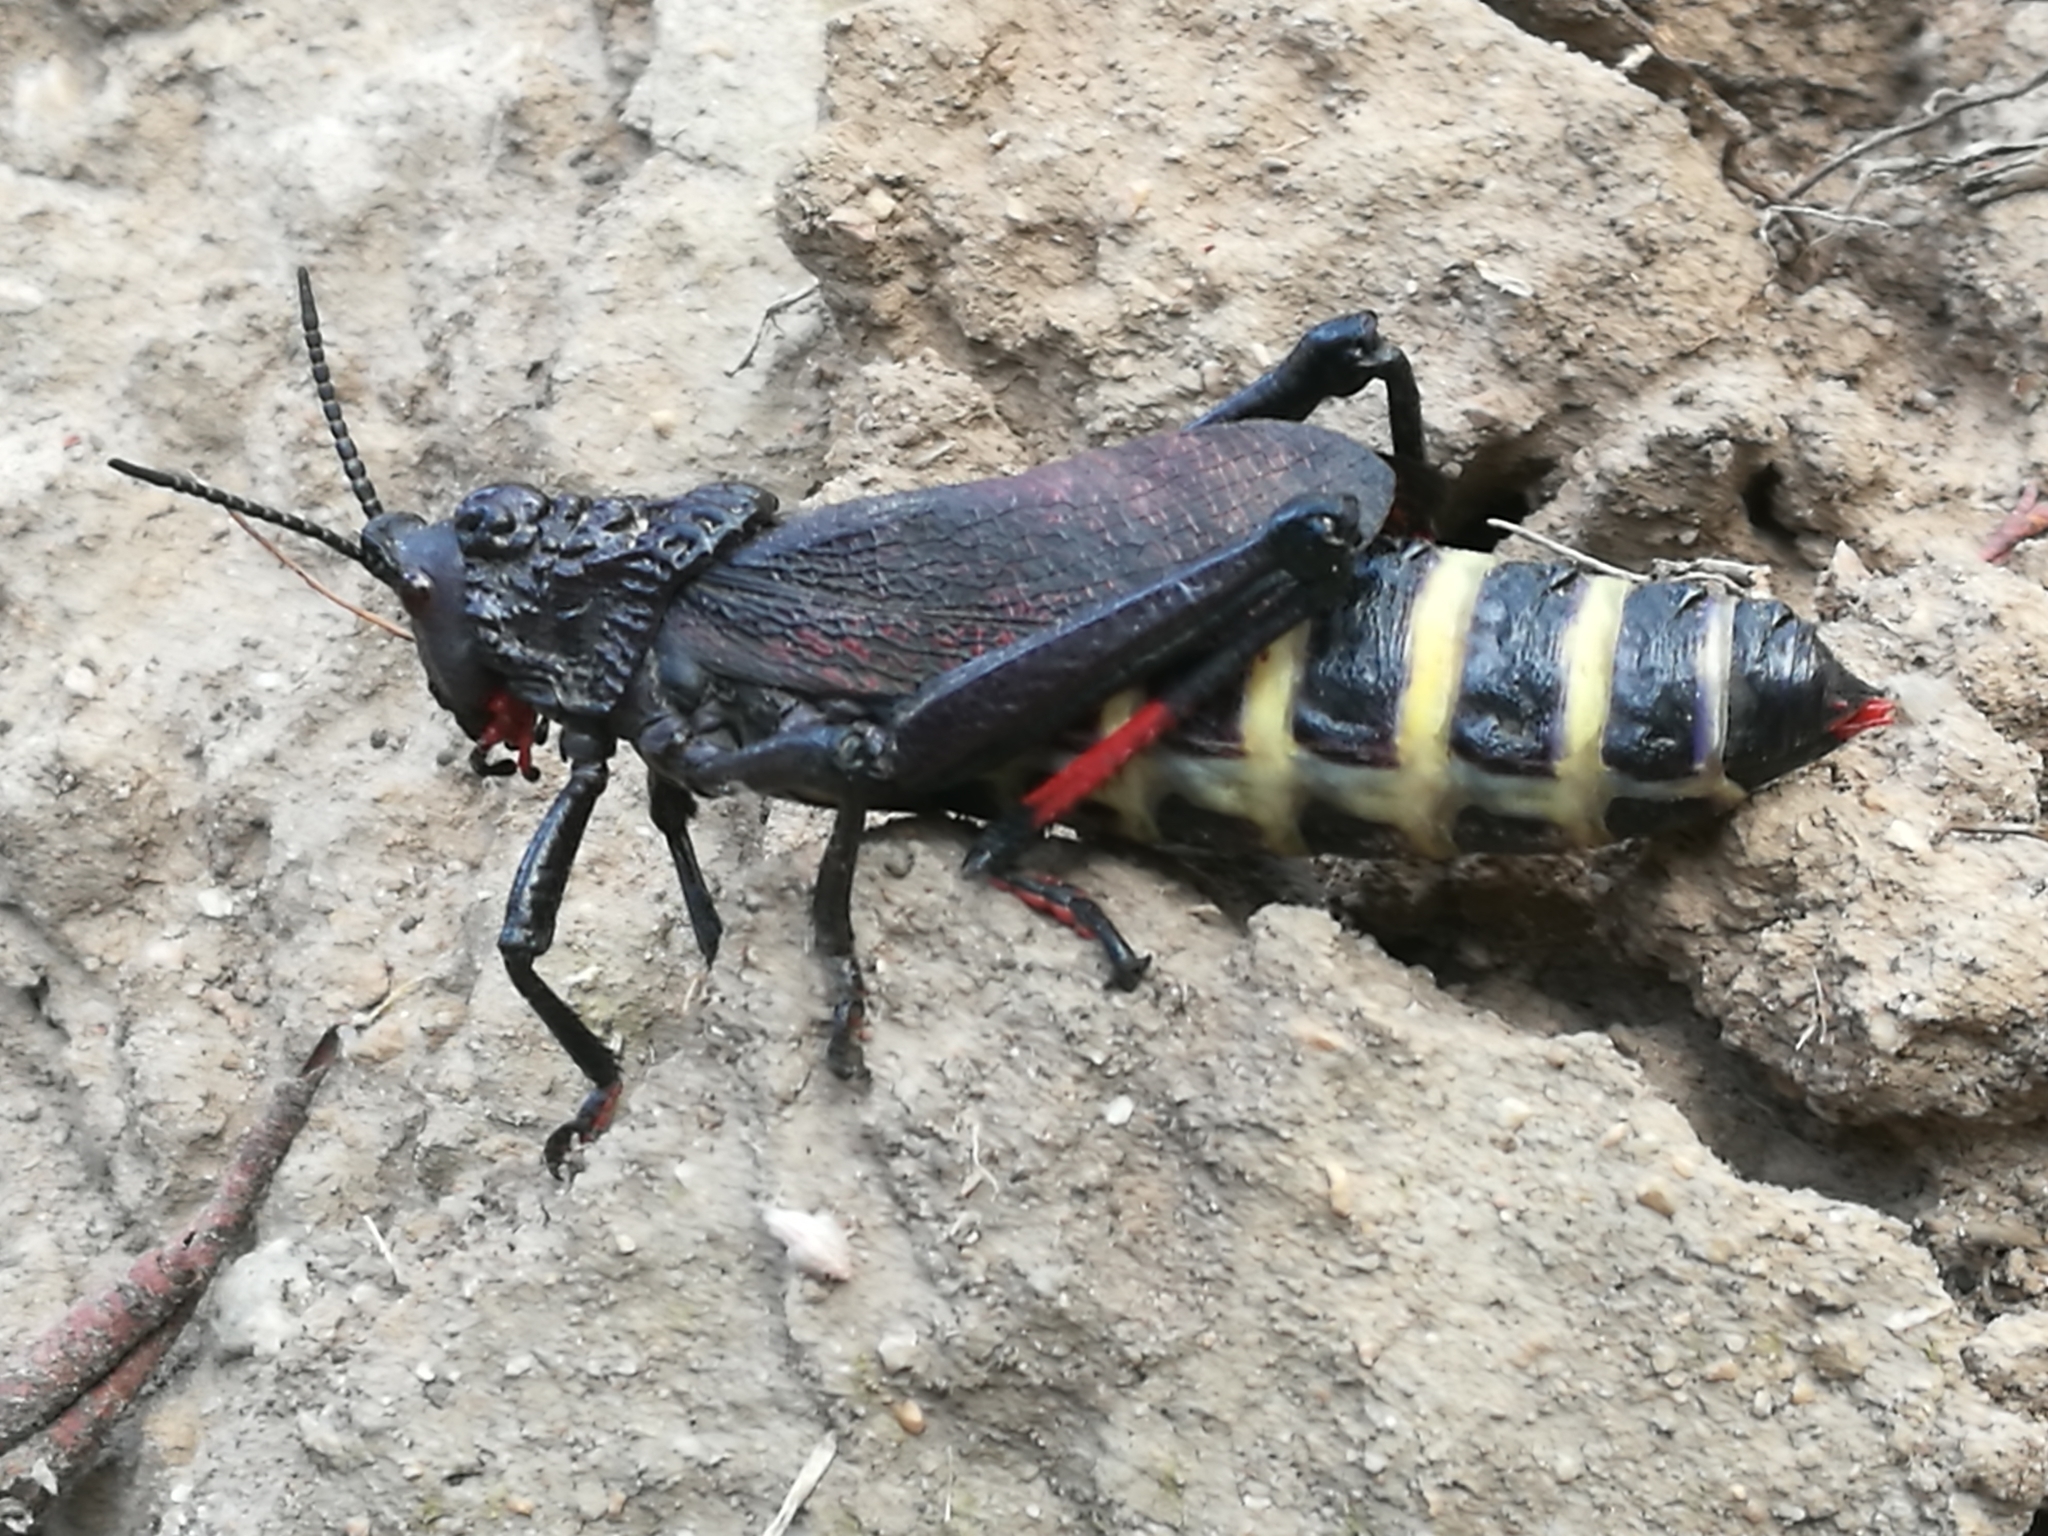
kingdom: Animalia
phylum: Arthropoda
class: Insecta
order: Orthoptera
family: Pyrgomorphidae
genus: Dictyophorus
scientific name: Dictyophorus spumans
